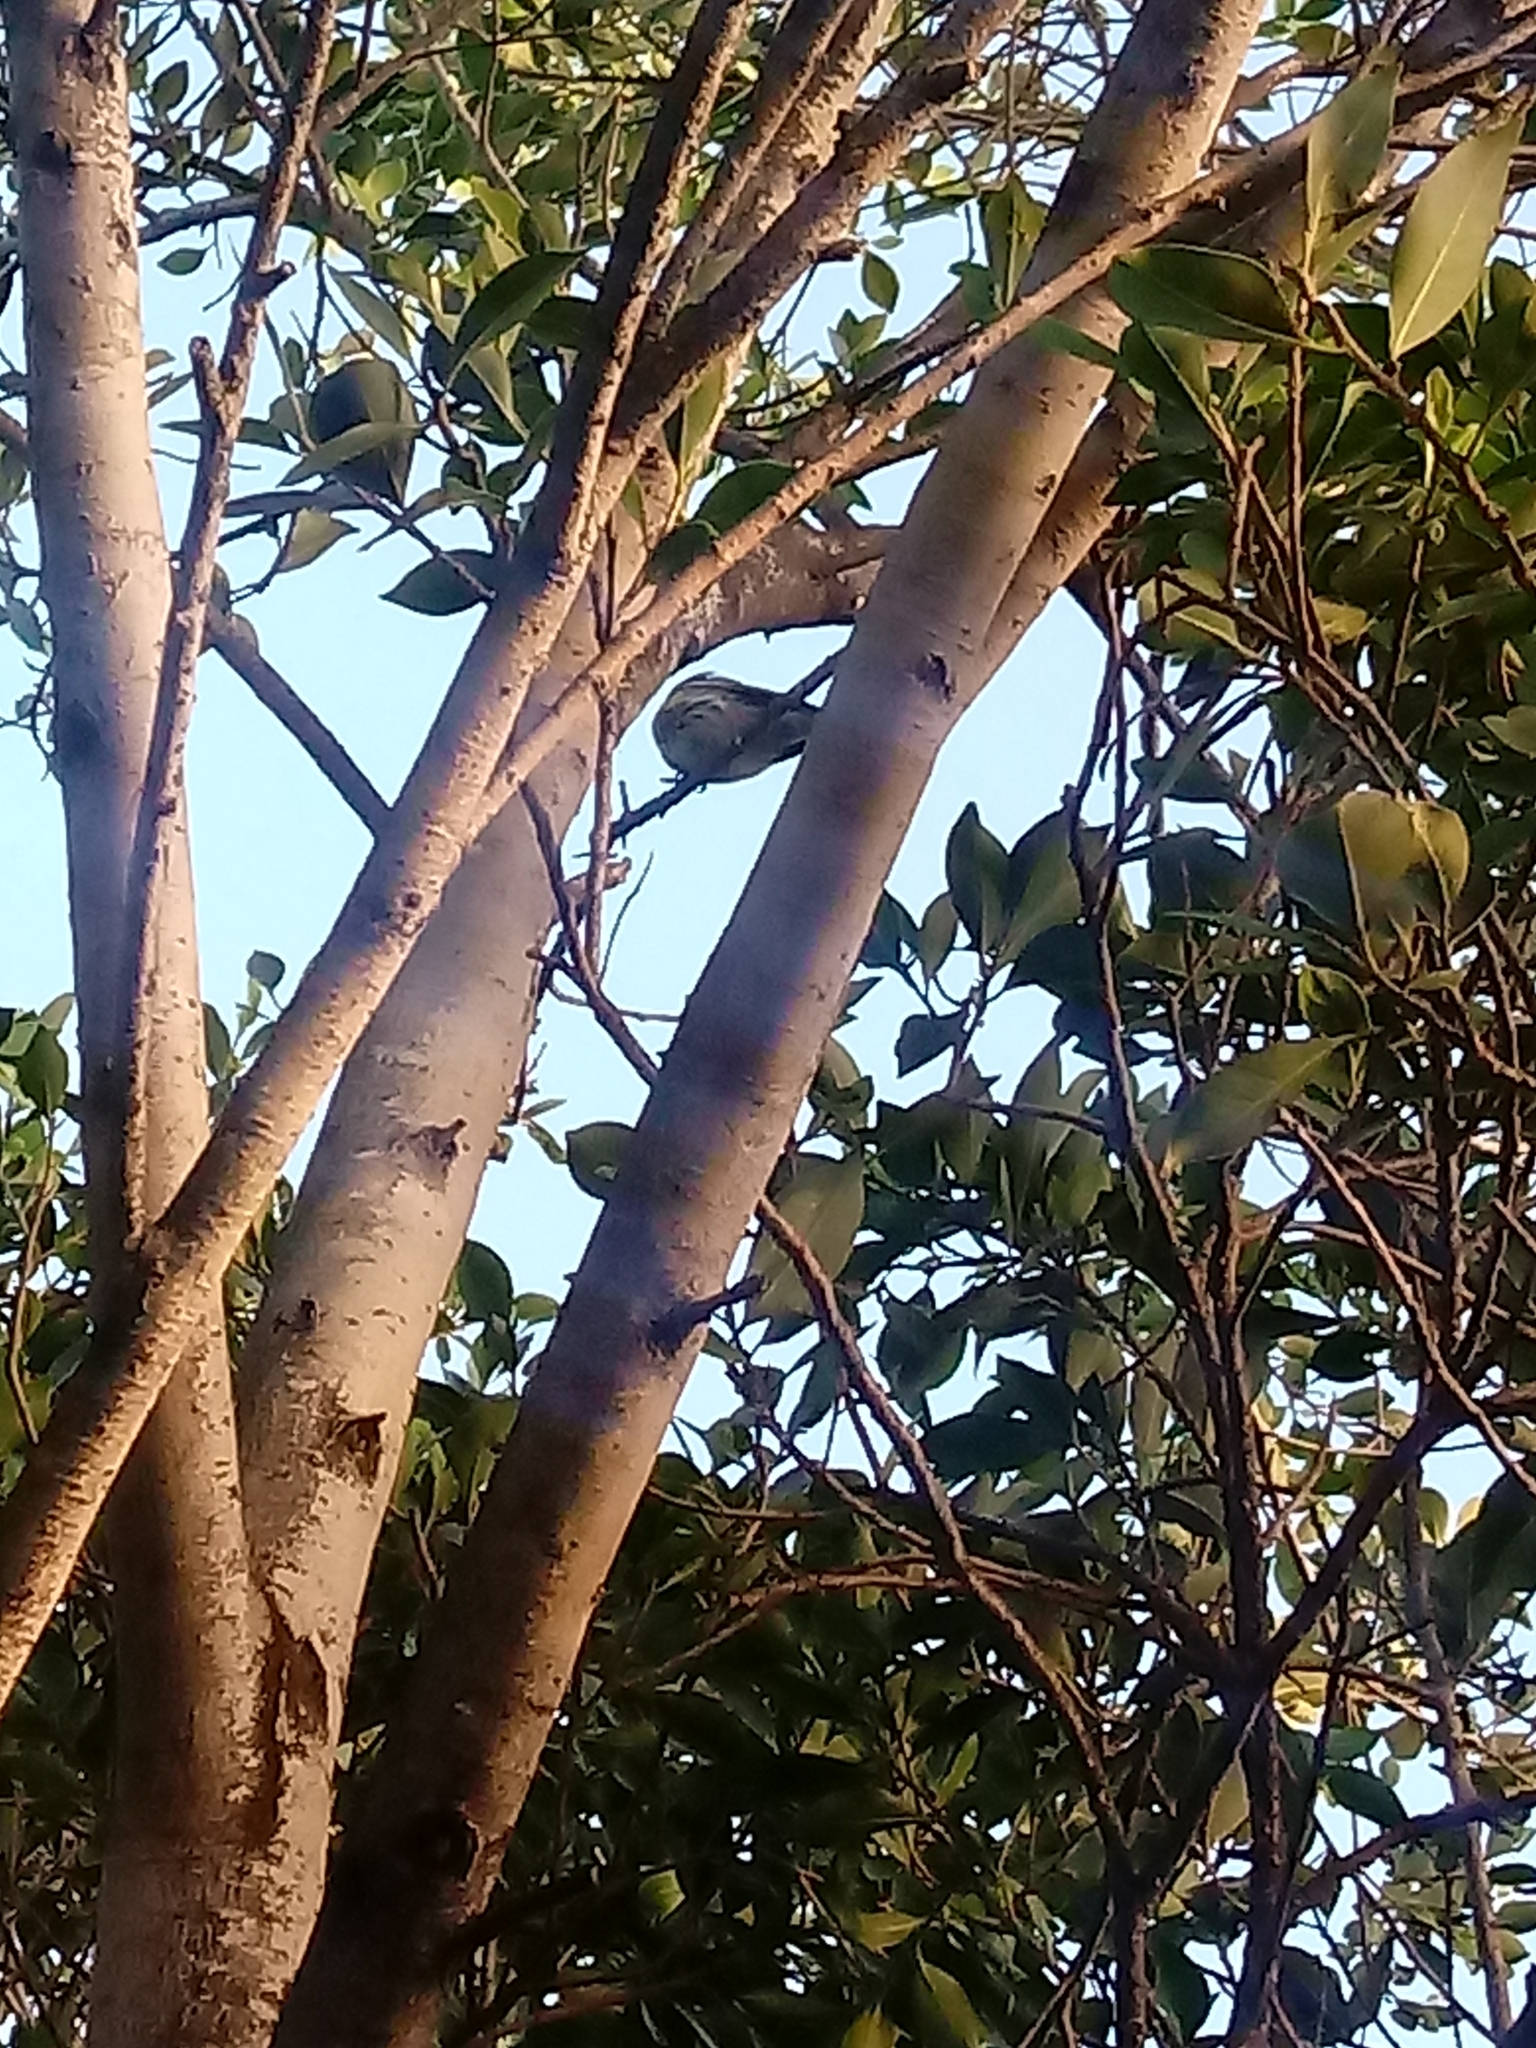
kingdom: Animalia
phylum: Chordata
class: Aves
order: Passeriformes
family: Parulidae
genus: Setophaga
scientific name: Setophaga coronata
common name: Myrtle warbler
